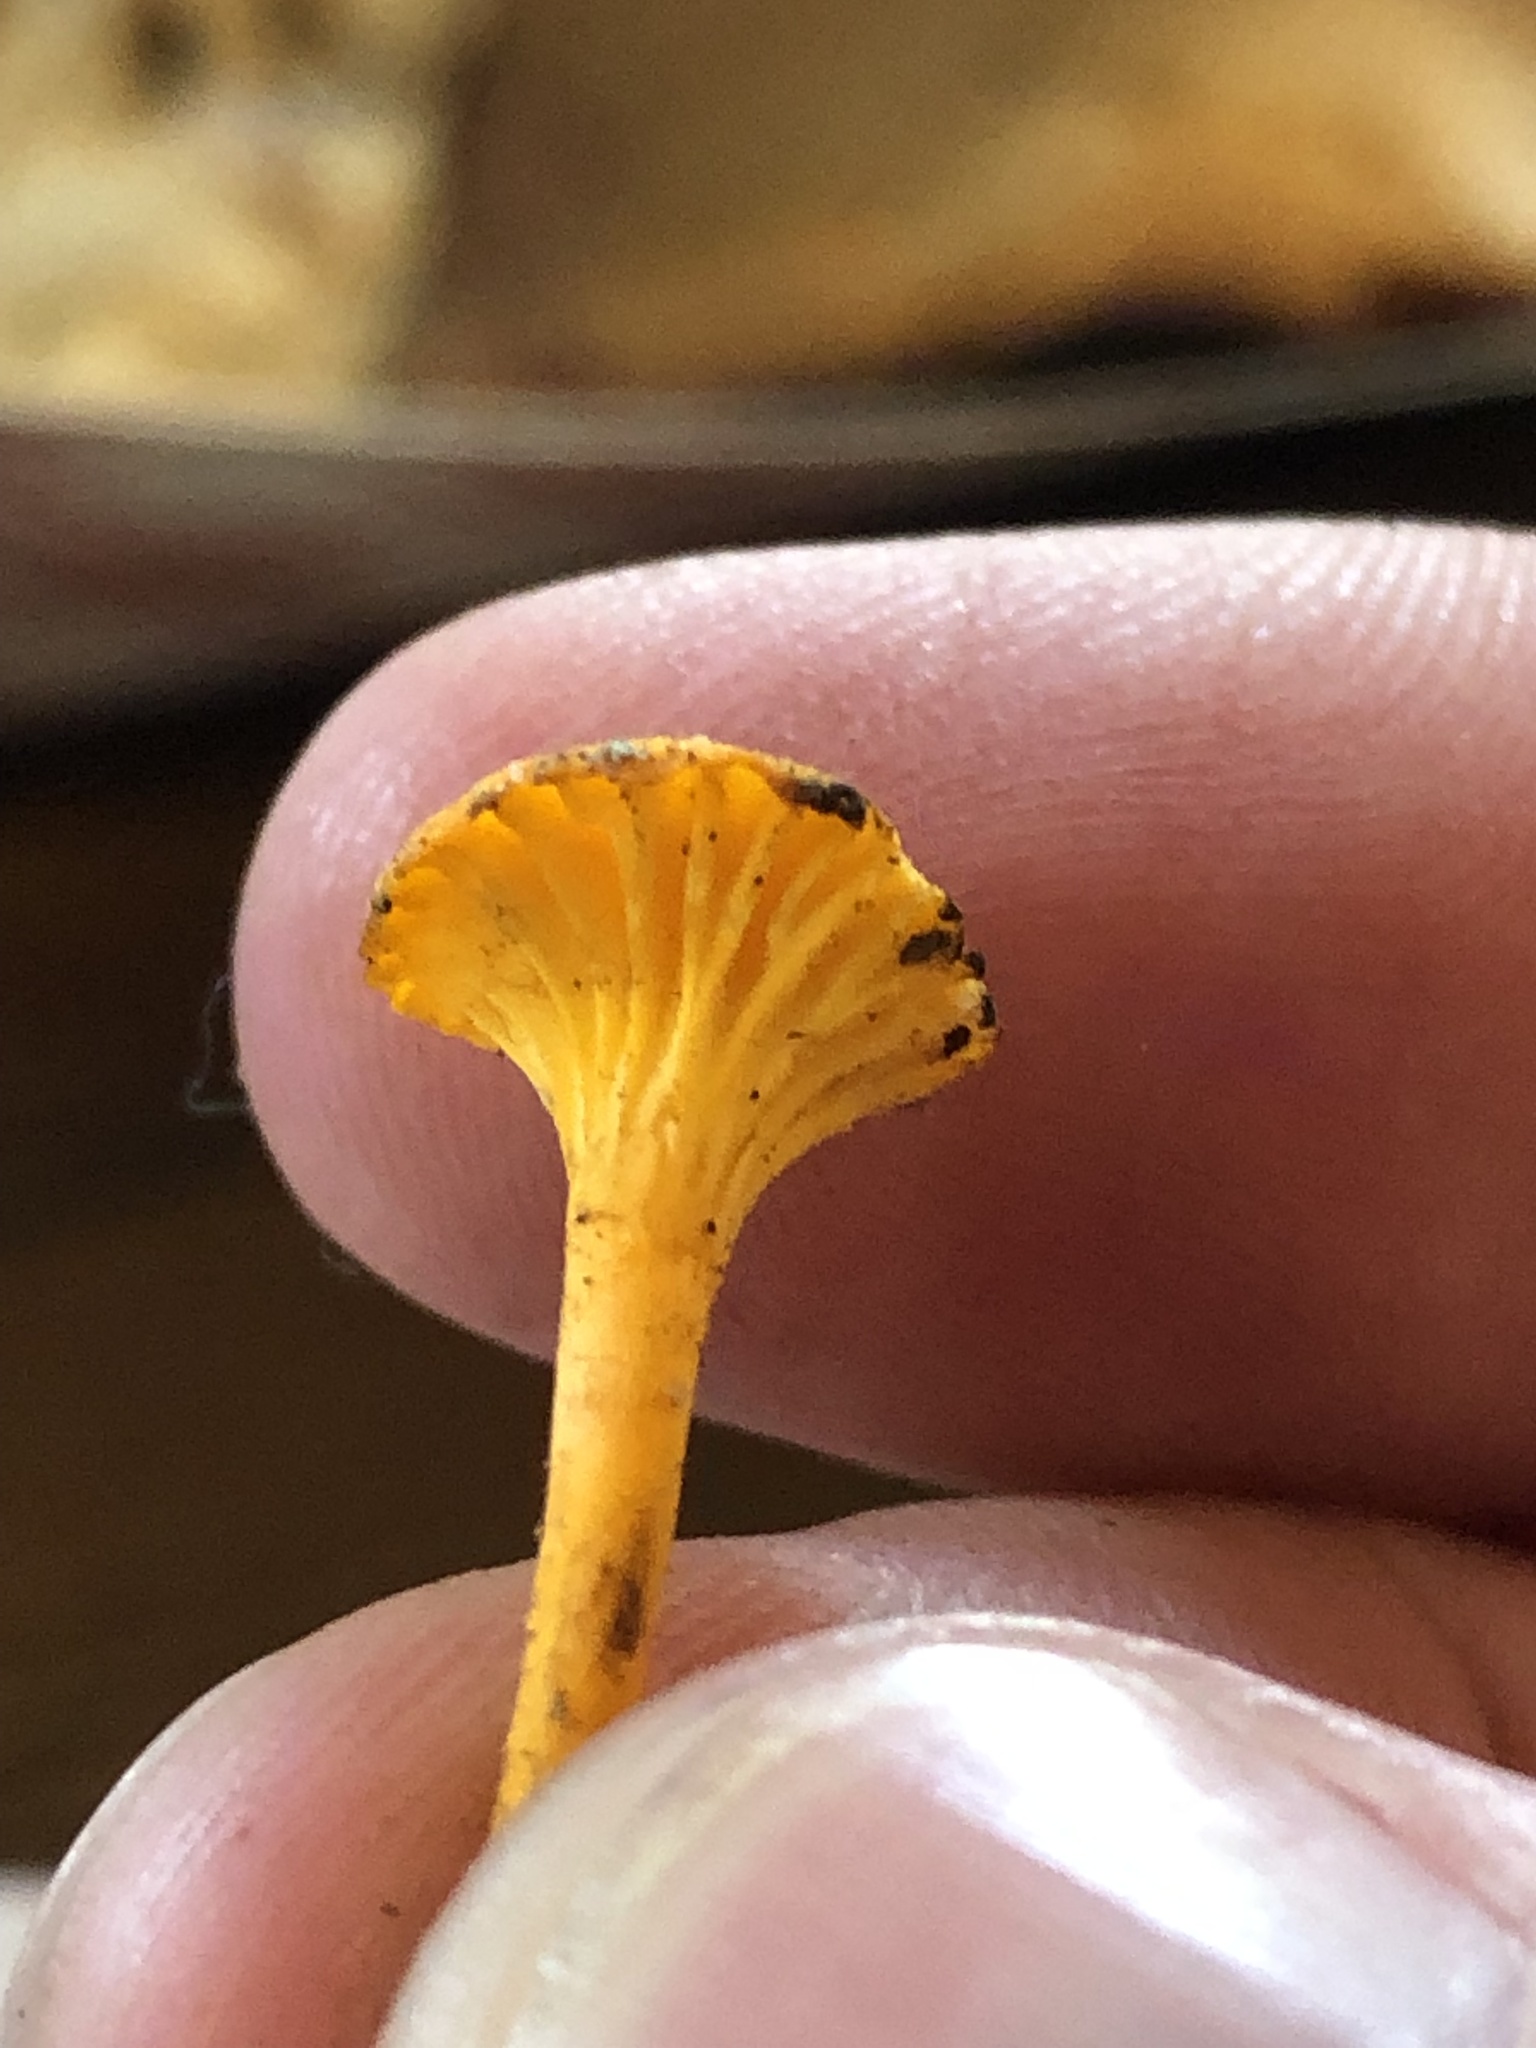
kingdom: Fungi
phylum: Basidiomycota
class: Agaricomycetes
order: Cantharellales
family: Hydnaceae
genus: Cantharellus
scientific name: Cantharellus minor
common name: Small chanterelle
